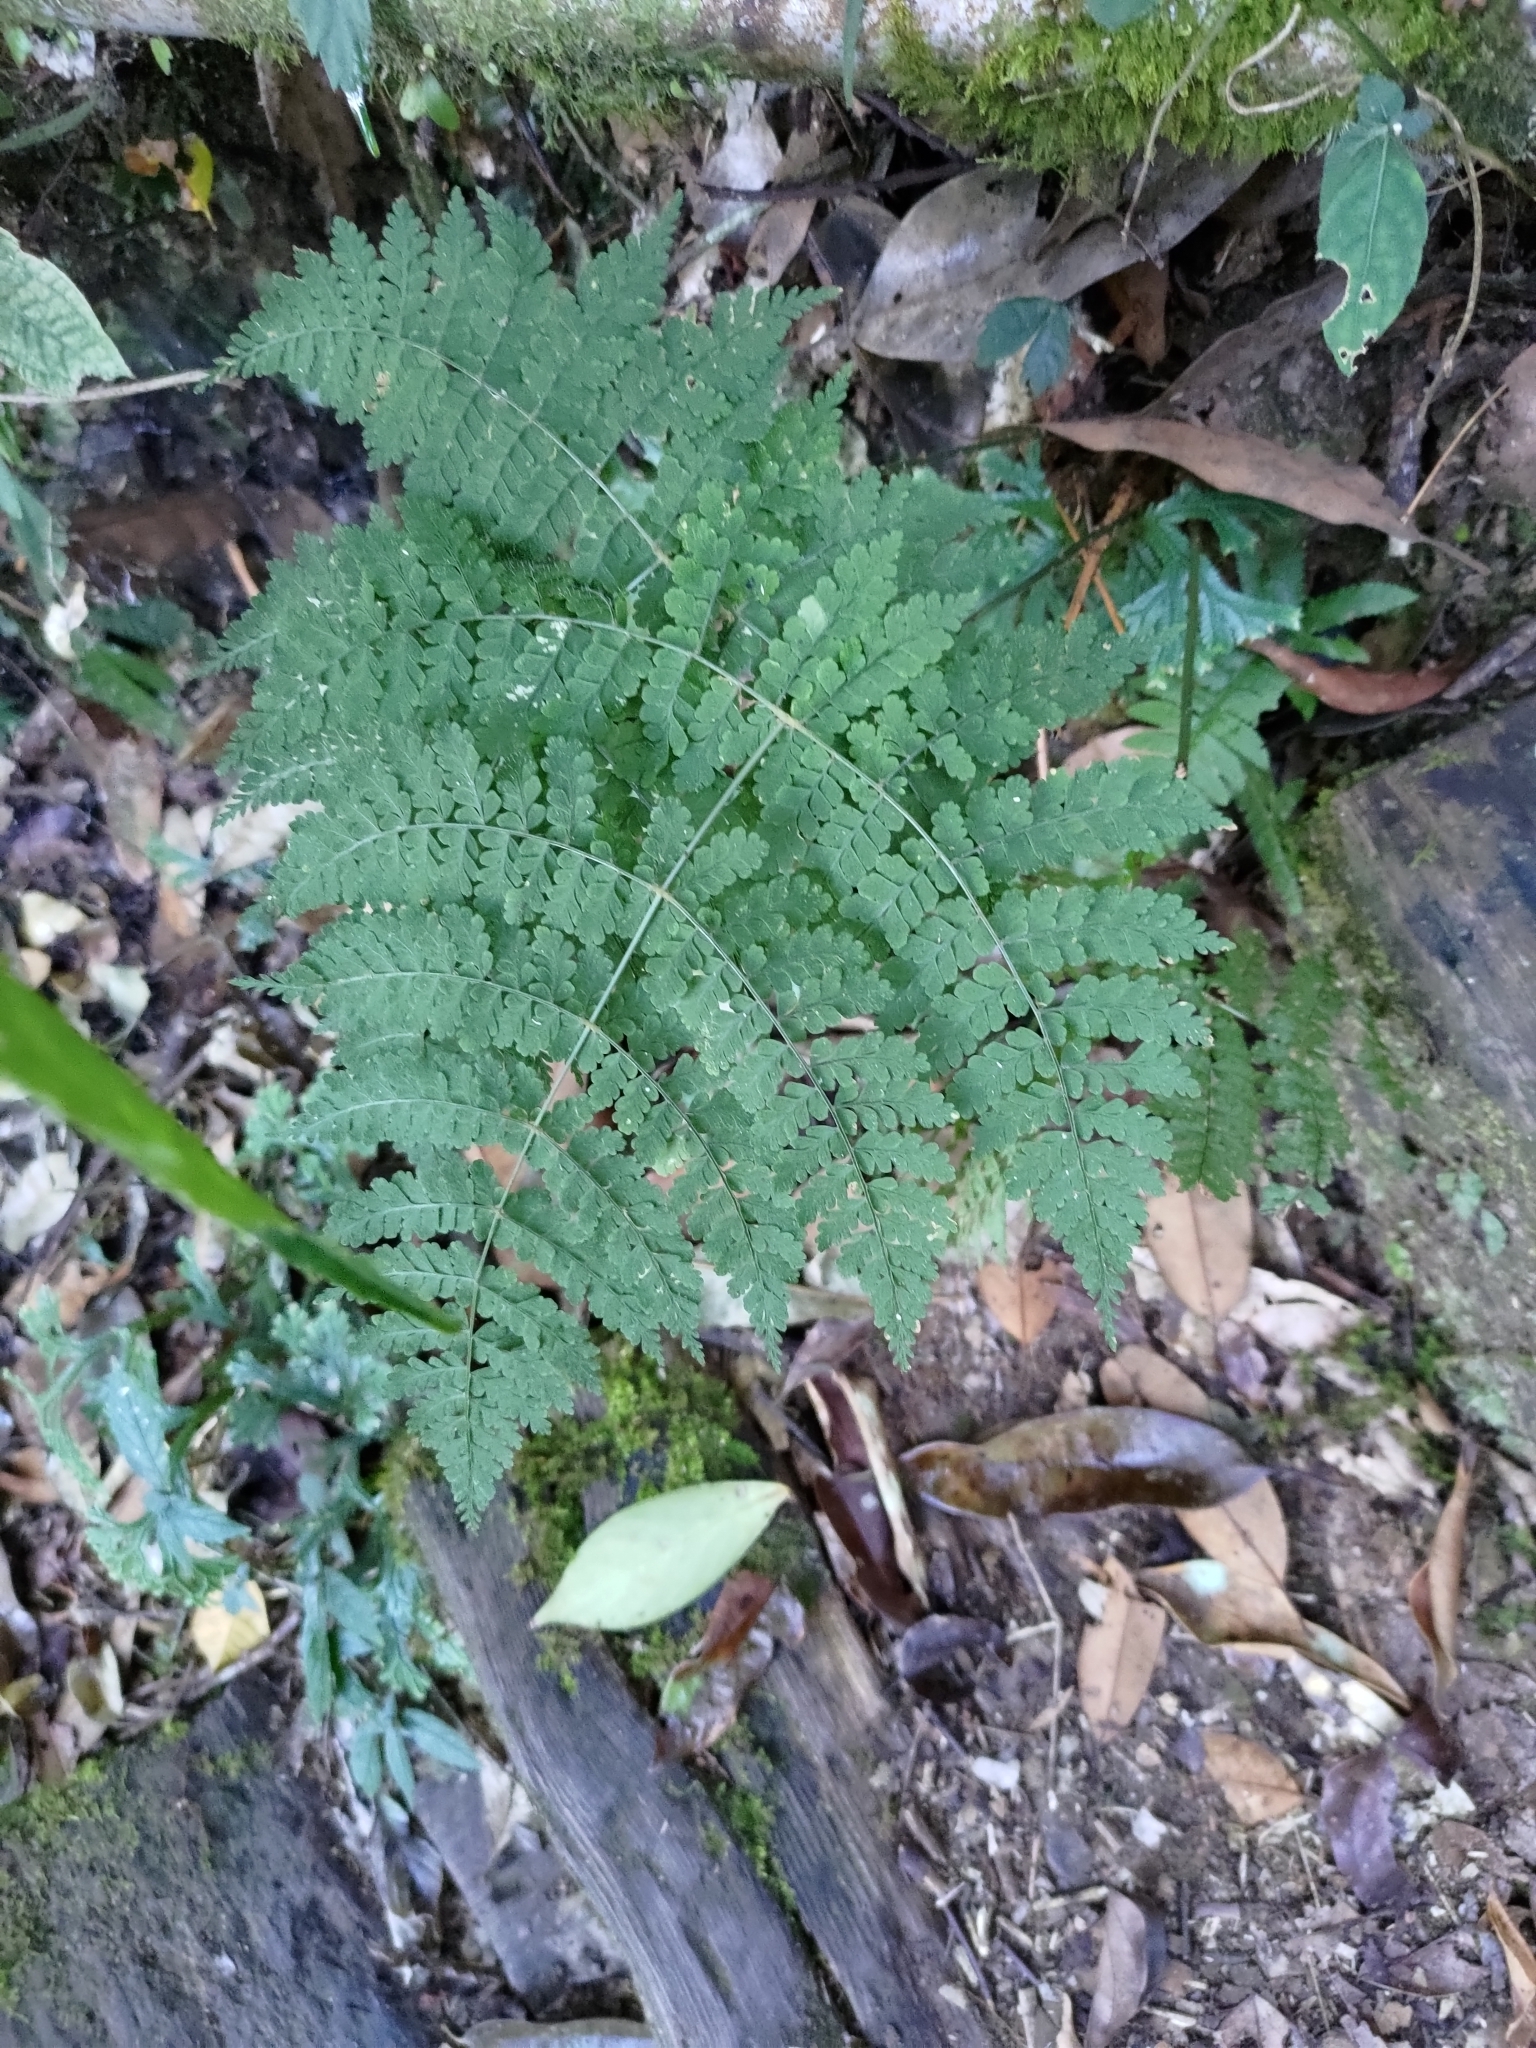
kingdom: Plantae
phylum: Tracheophyta
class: Polypodiopsida
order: Polypodiales
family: Dryopteridaceae
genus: Dryopteris
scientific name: Dryopteris paleolata
